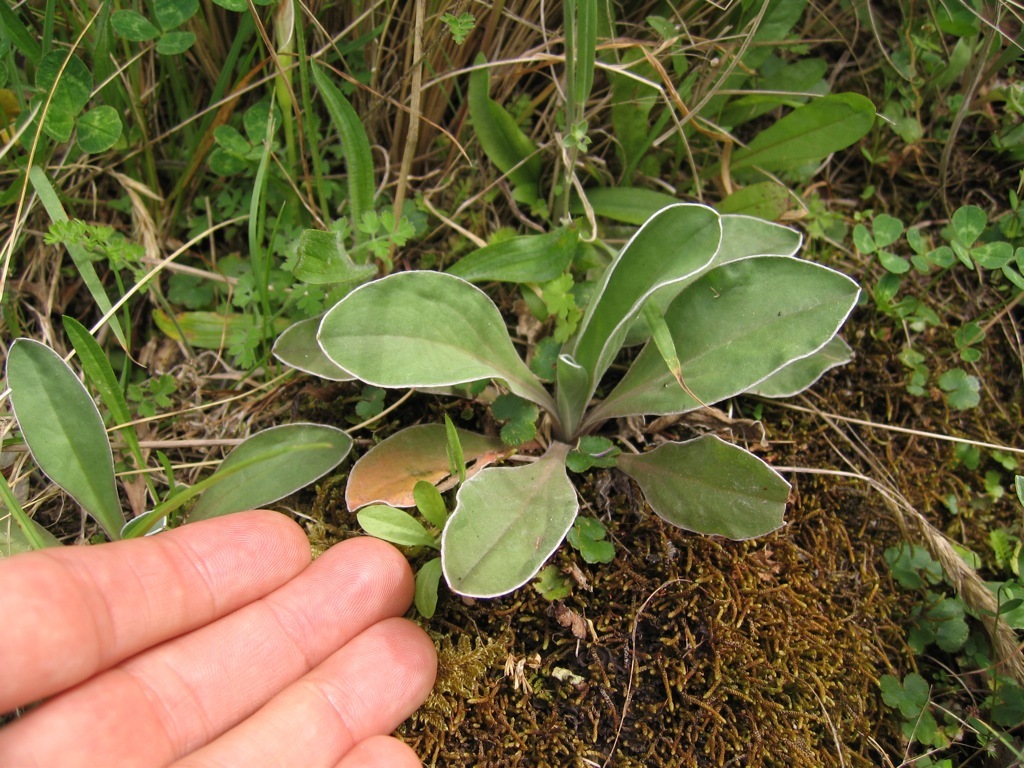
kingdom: Plantae
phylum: Tracheophyta
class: Magnoliopsida
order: Asterales
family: Asteraceae
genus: Craspedia
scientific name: Craspedia minor
